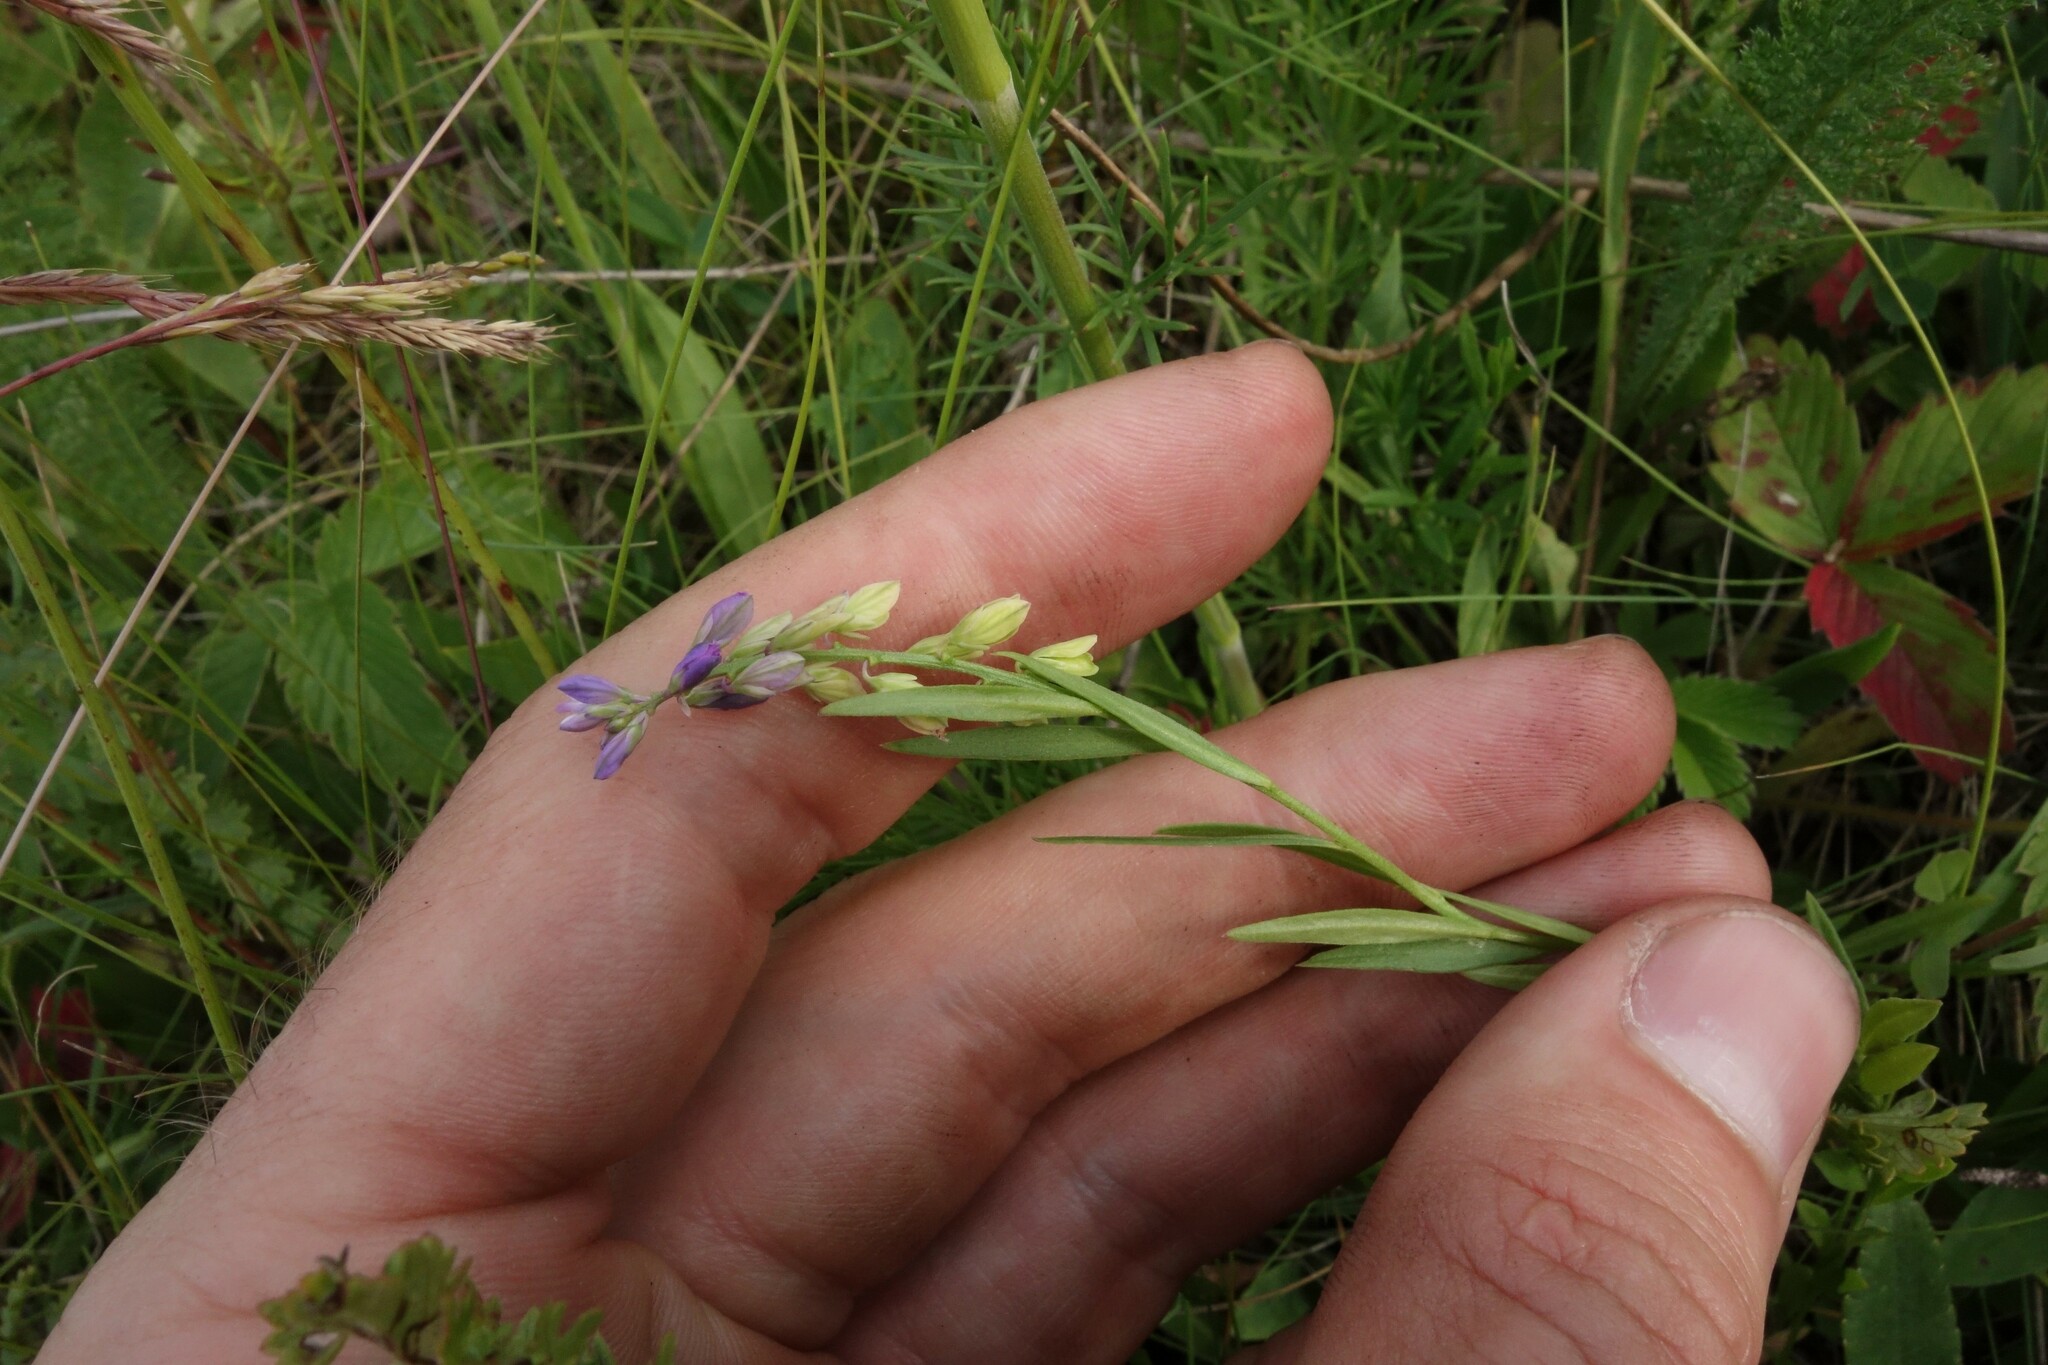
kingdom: Plantae
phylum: Tracheophyta
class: Magnoliopsida
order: Fabales
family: Polygalaceae
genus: Polygala
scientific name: Polygala comosa
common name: Tufted milkwort
